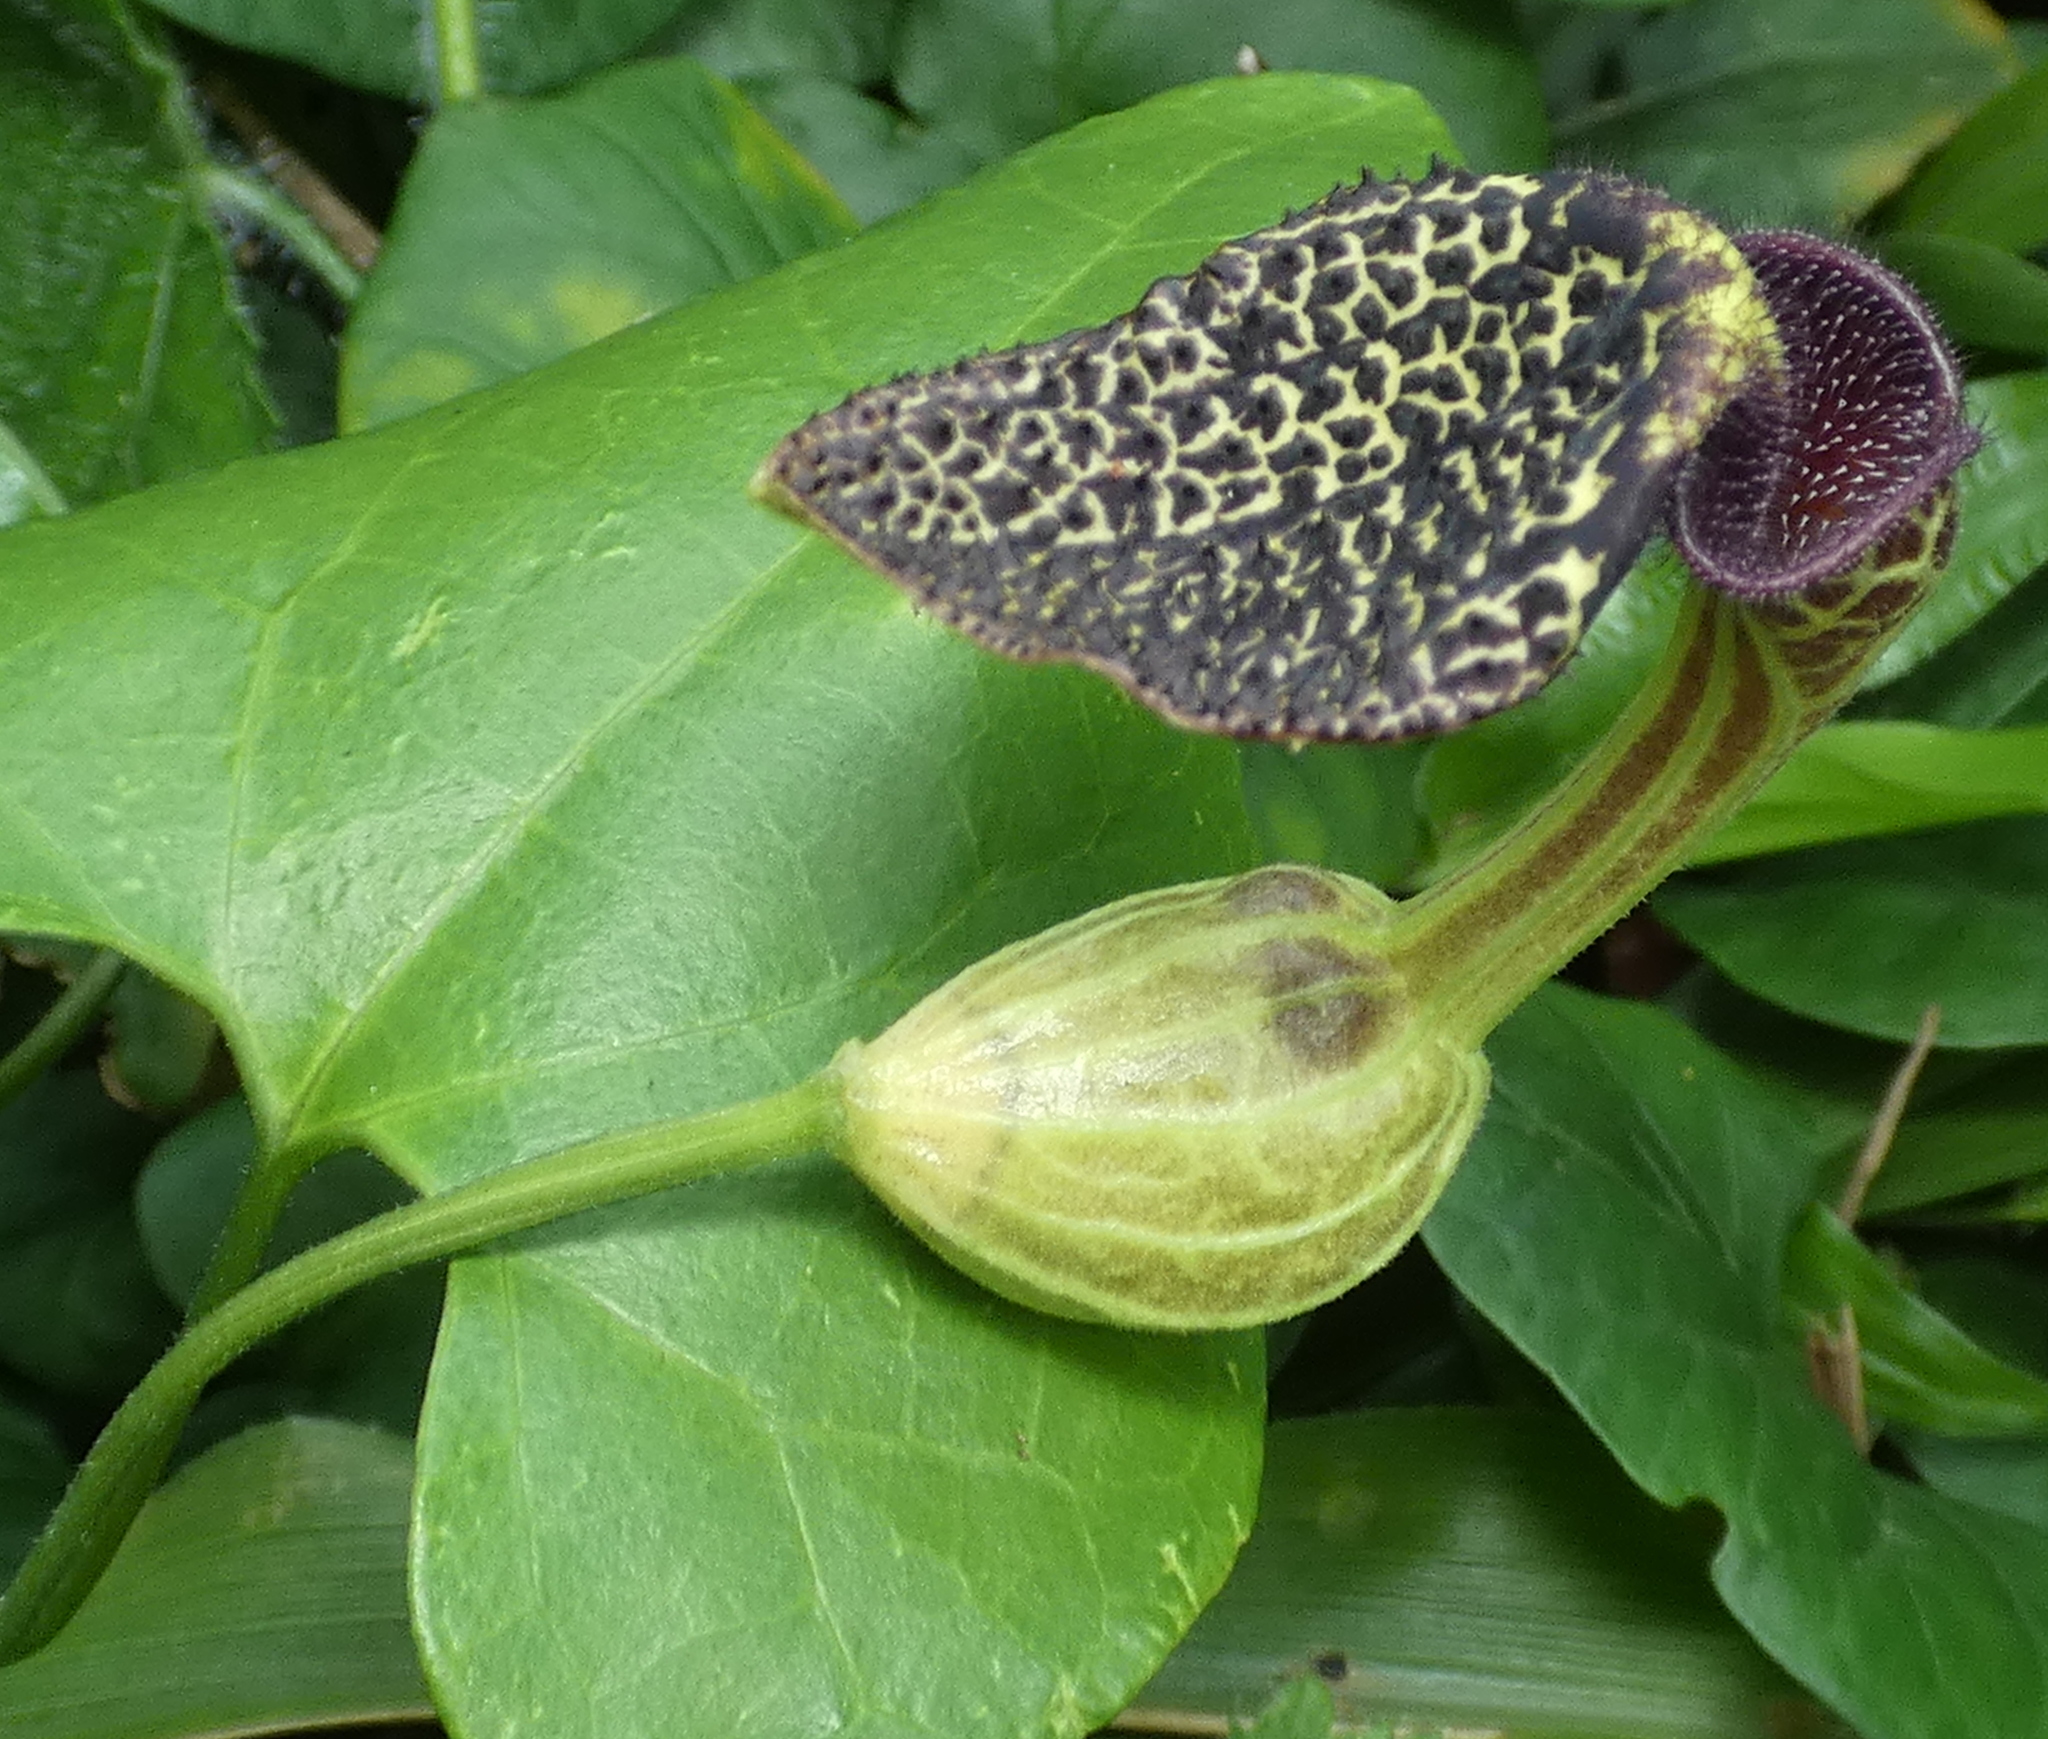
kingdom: Plantae
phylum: Tracheophyta
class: Magnoliopsida
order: Piperales
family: Aristolochiaceae
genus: Aristolochia
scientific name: Aristolochia papillaris
